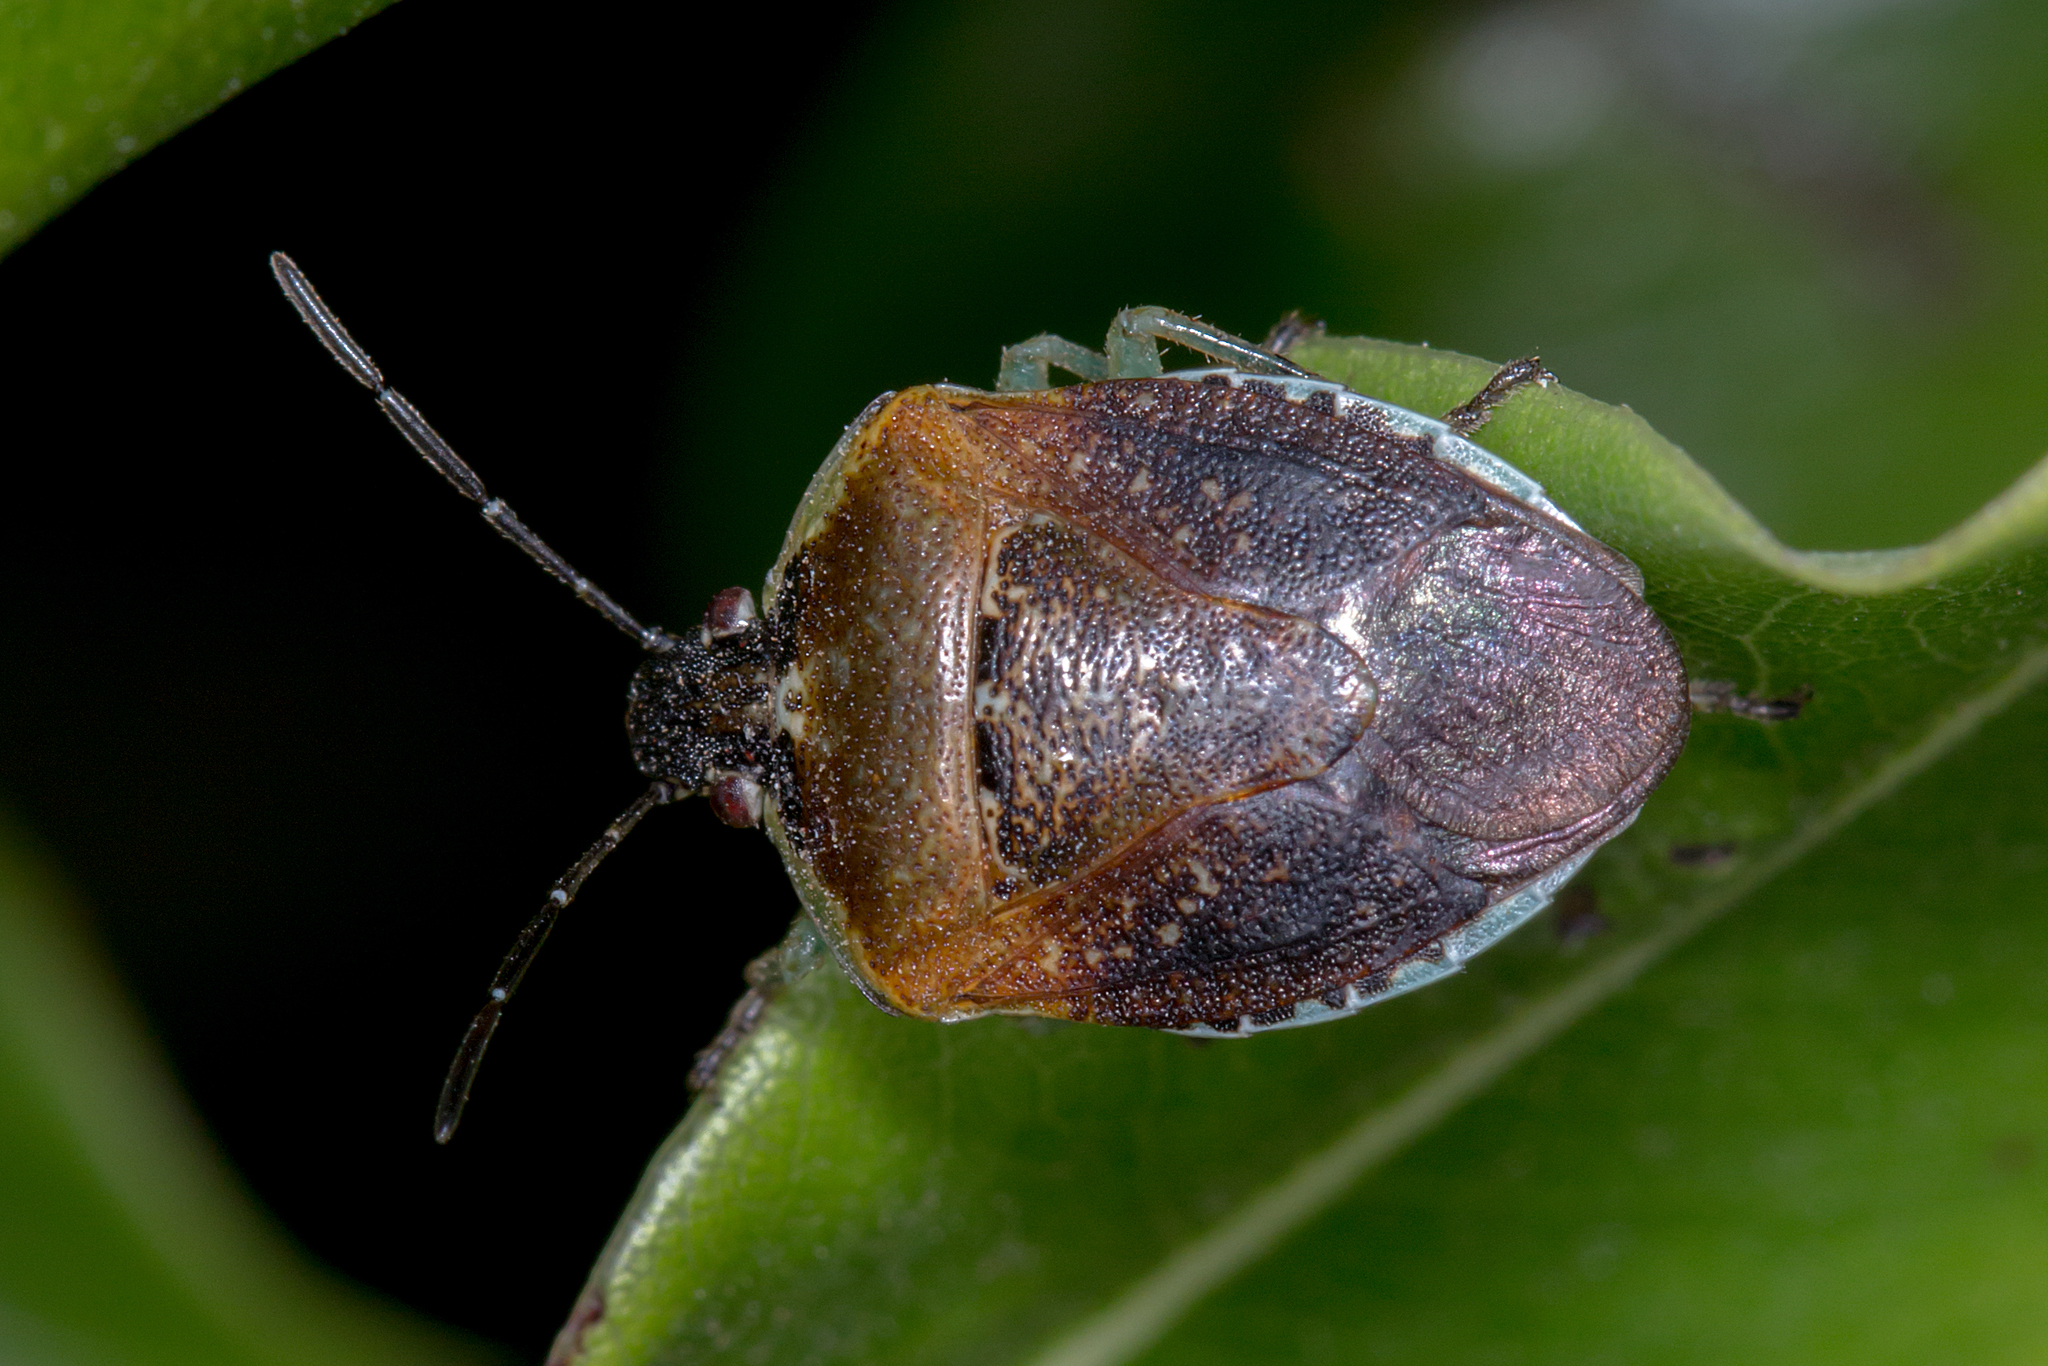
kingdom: Animalia
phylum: Arthropoda
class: Insecta
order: Hemiptera
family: Pentatomidae
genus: Monteithiella
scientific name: Monteithiella
